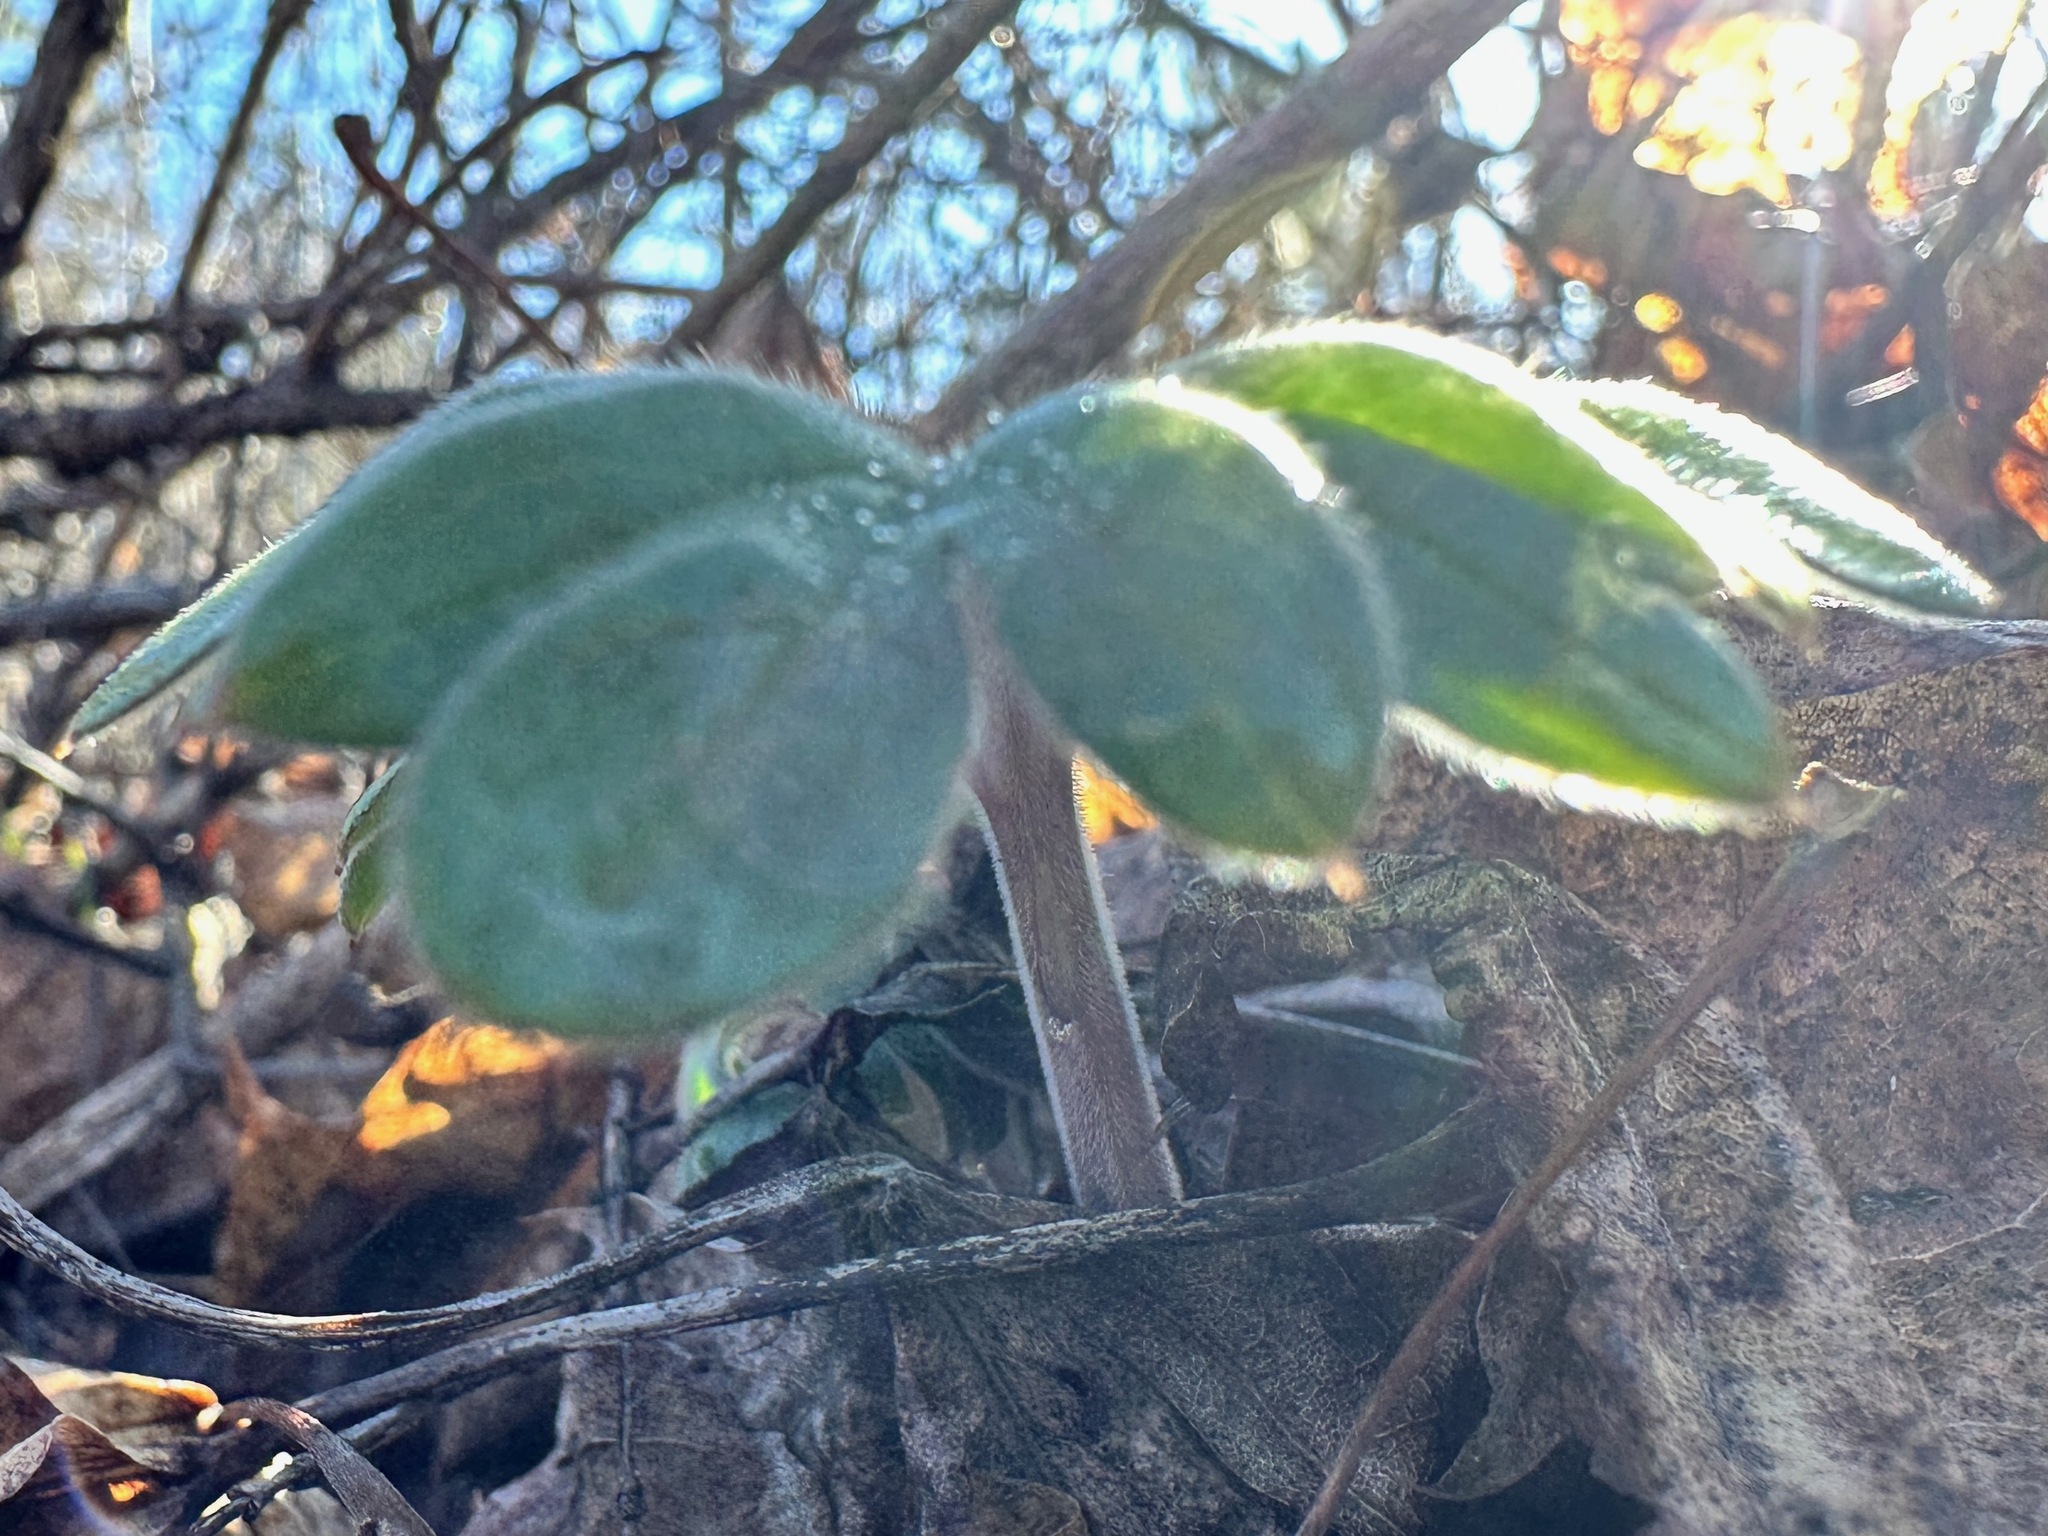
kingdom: Plantae
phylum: Tracheophyta
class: Magnoliopsida
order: Boraginales
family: Hydrophyllaceae
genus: Hydrophyllum
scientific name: Hydrophyllum capitatum
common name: Woollen-breeches
